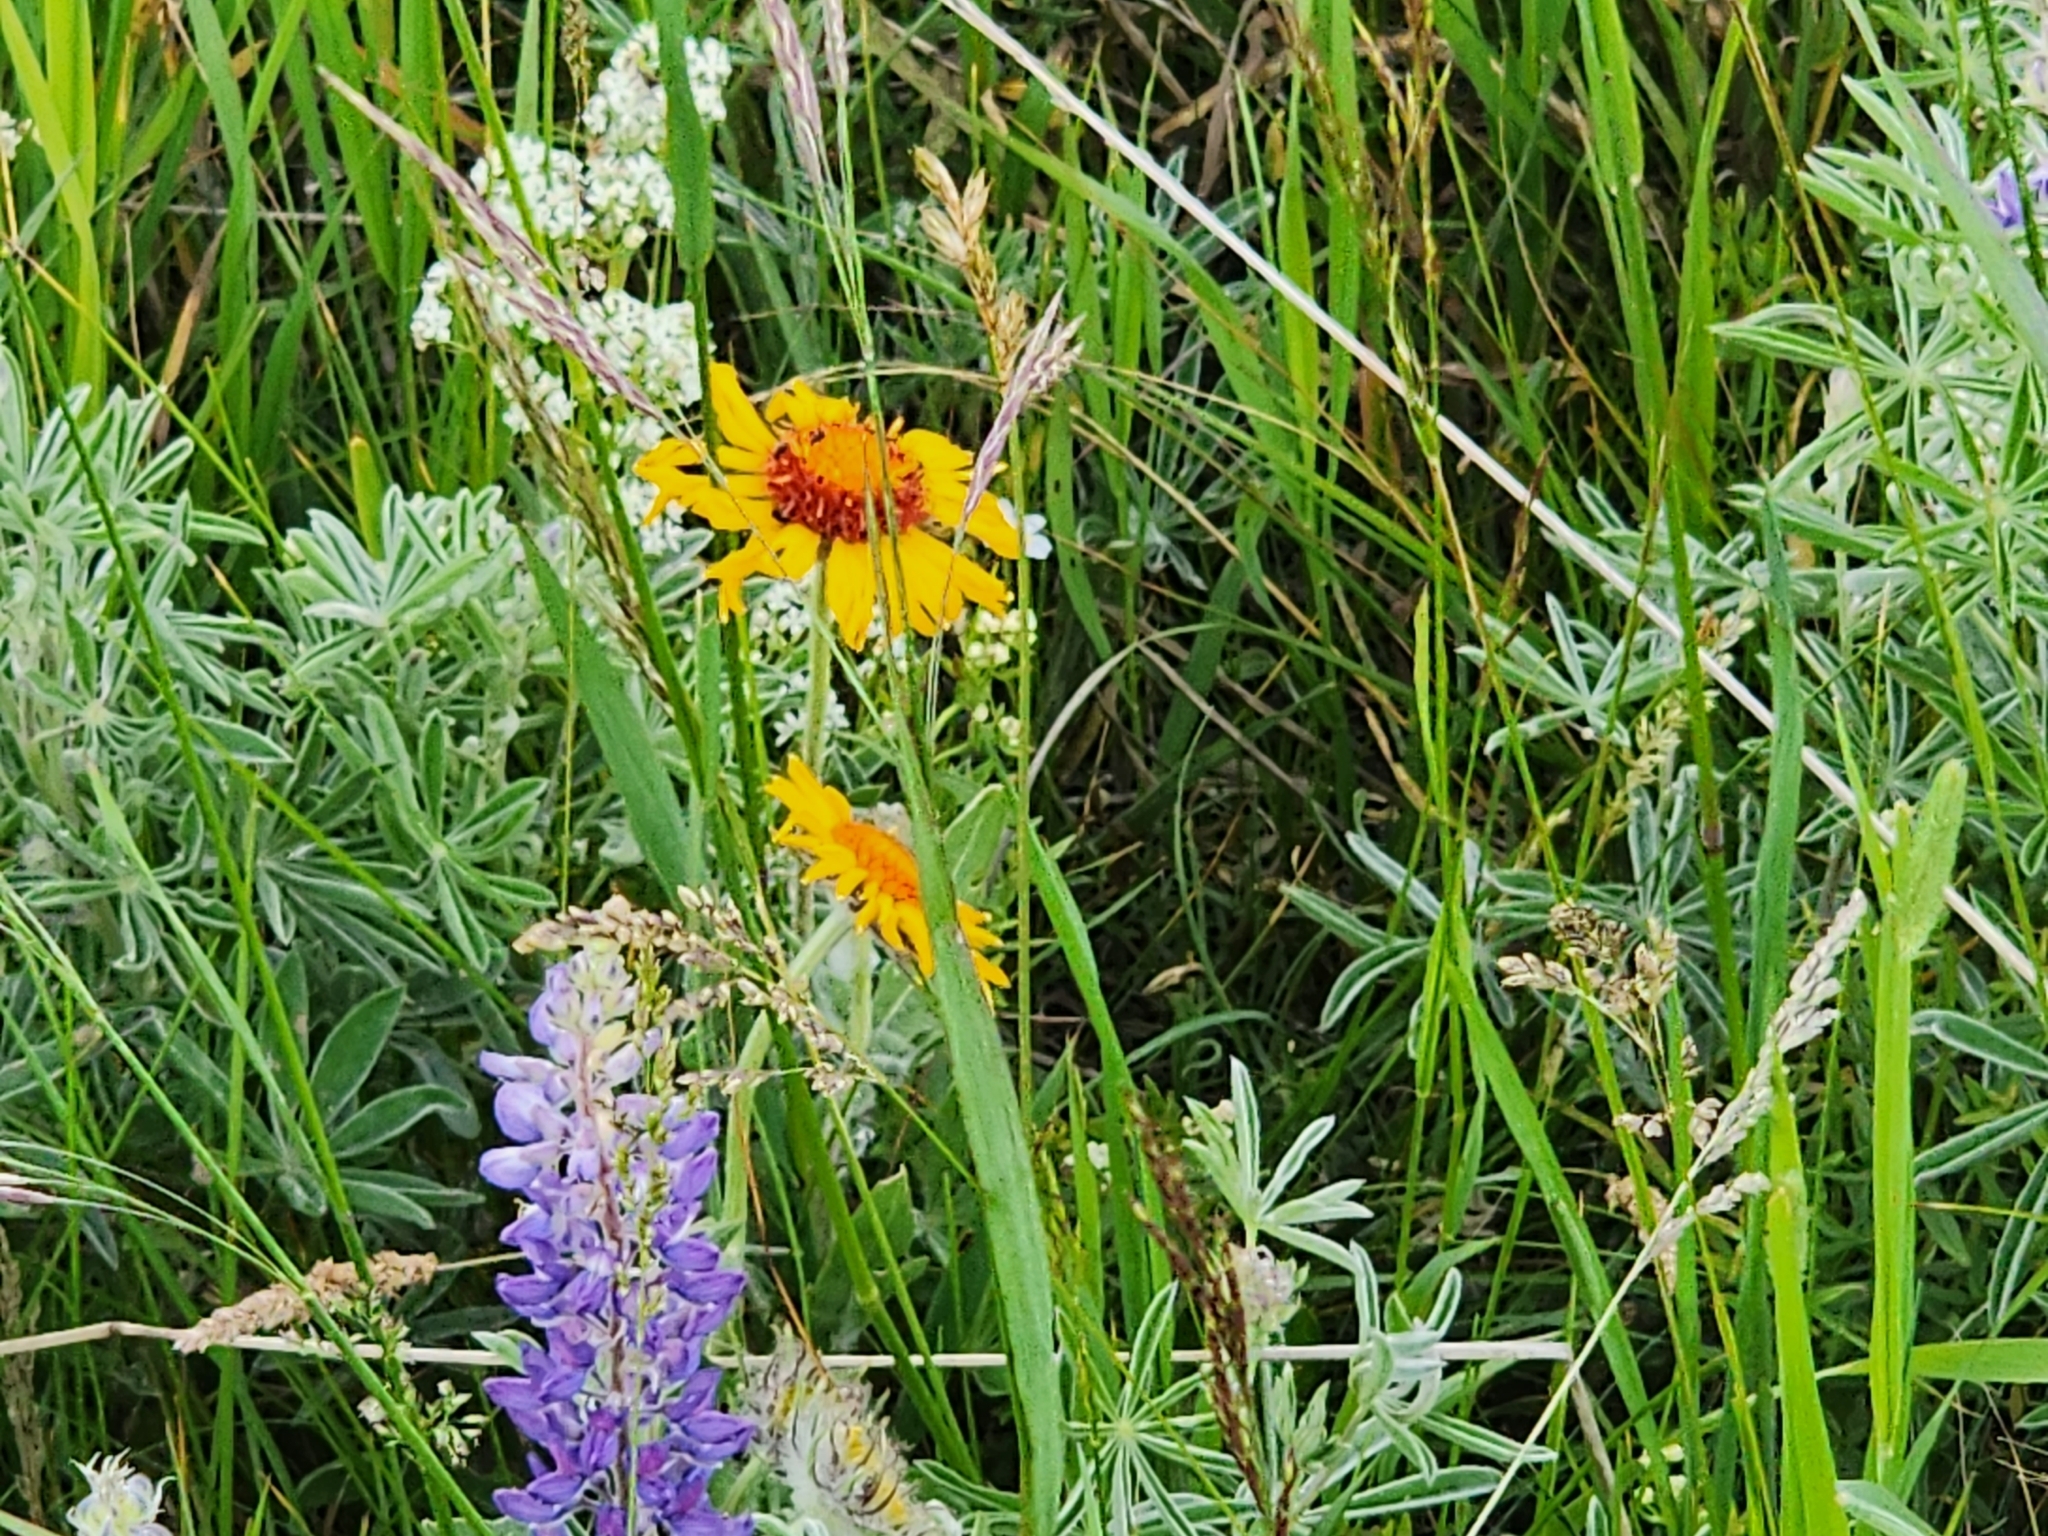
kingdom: Plantae
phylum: Tracheophyta
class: Magnoliopsida
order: Asterales
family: Asteraceae
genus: Gaillardia
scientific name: Gaillardia aristata
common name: Blanket-flower
